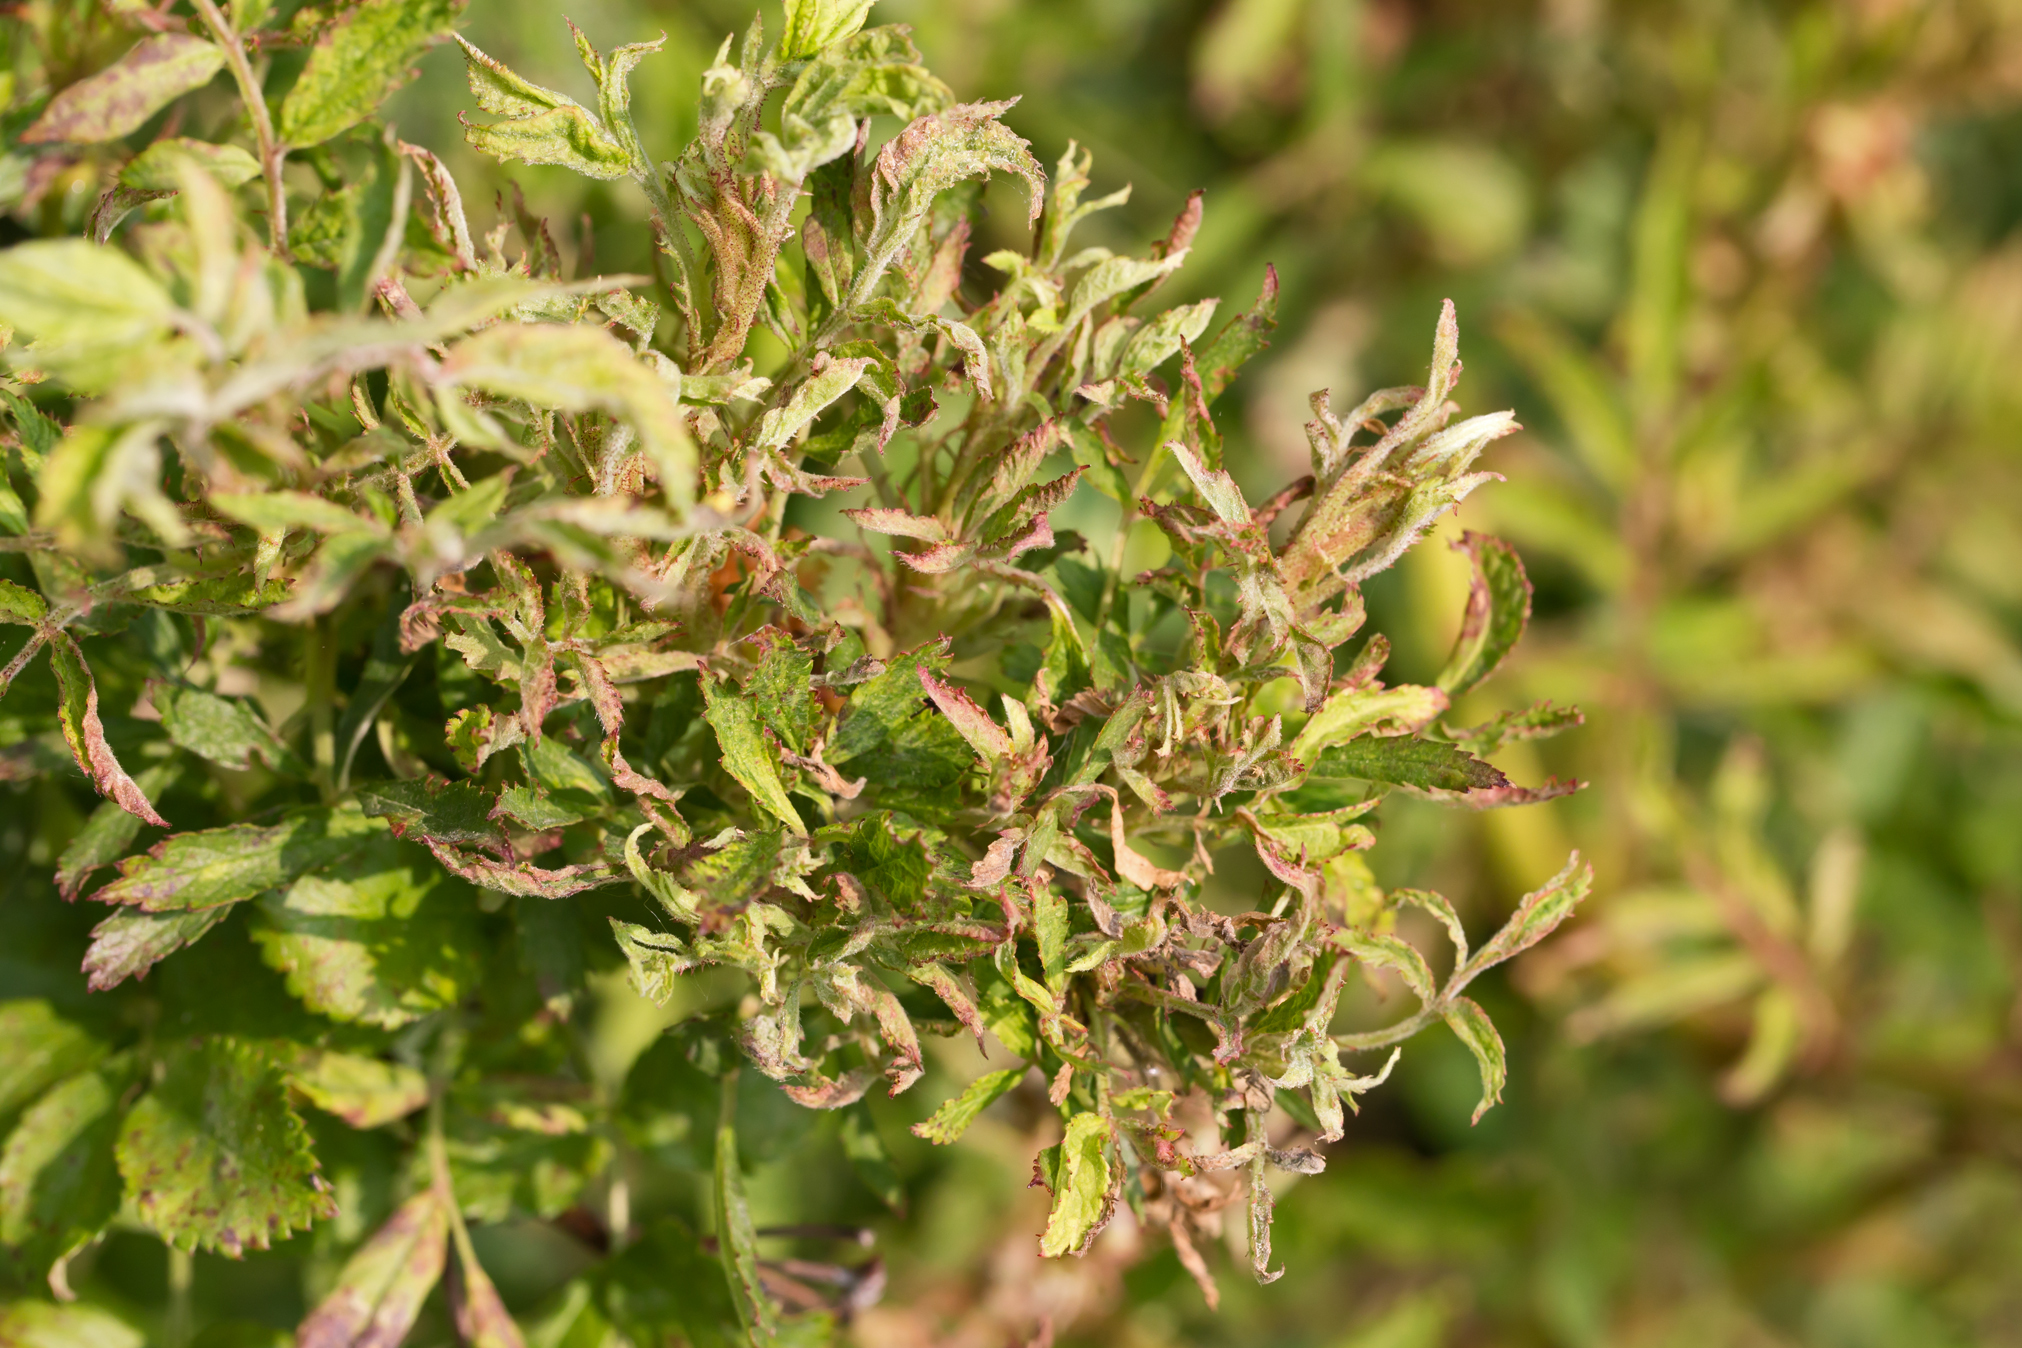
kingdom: Viruses
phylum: Negarnaviricota
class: Ellioviricetes
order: Bunyavirales
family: Fimoviridae
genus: Emaravirus
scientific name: Emaravirus rosae
